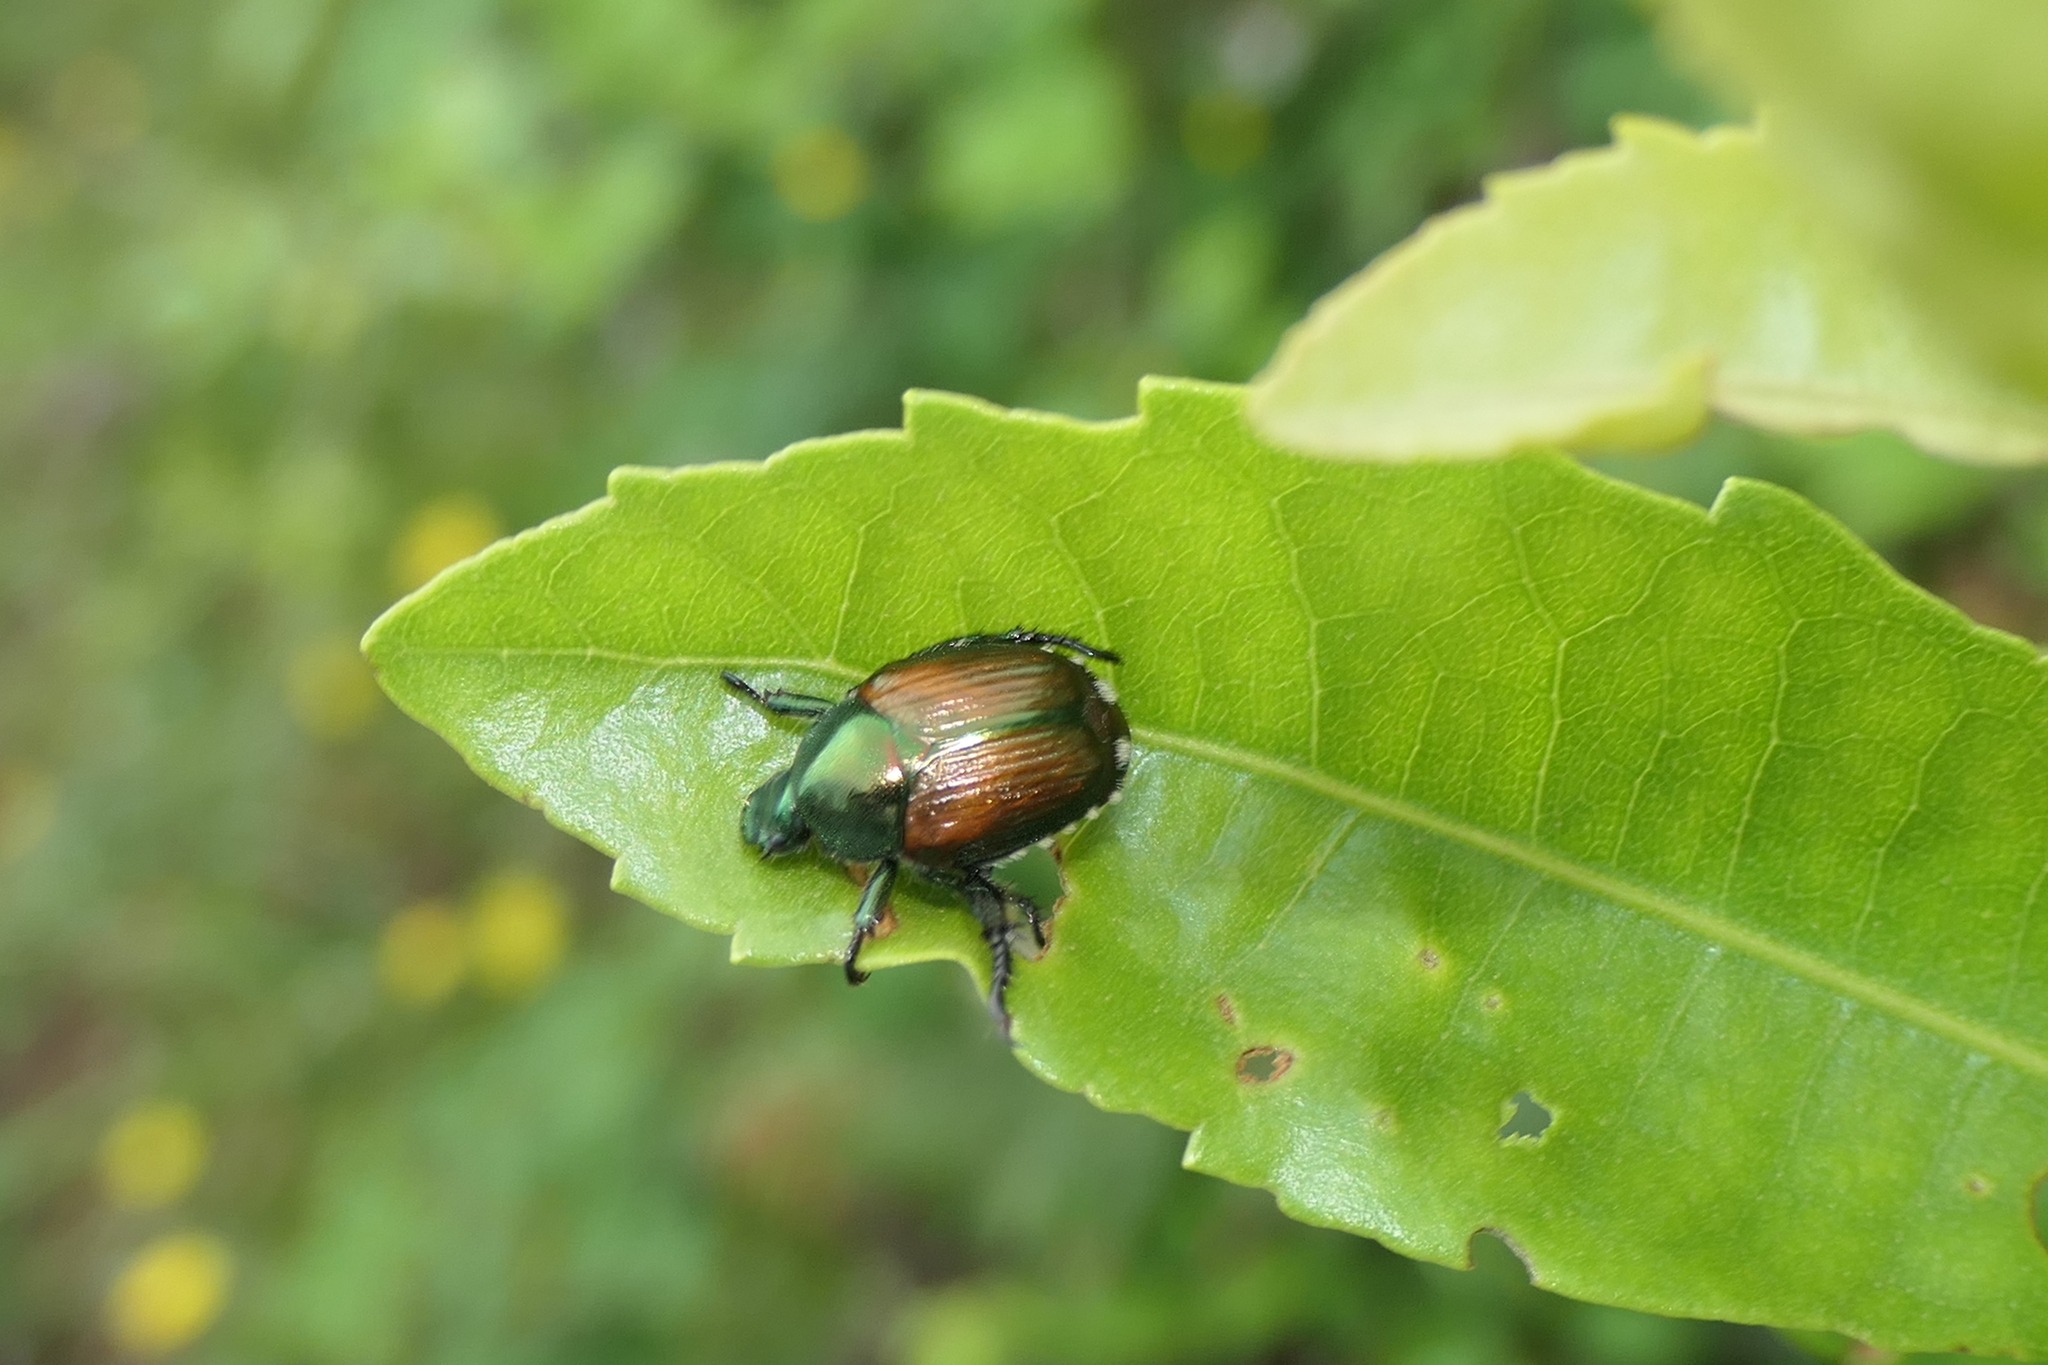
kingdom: Animalia
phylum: Arthropoda
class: Insecta
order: Coleoptera
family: Scarabaeidae
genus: Popillia
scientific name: Popillia japonica
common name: Japanese beetle
